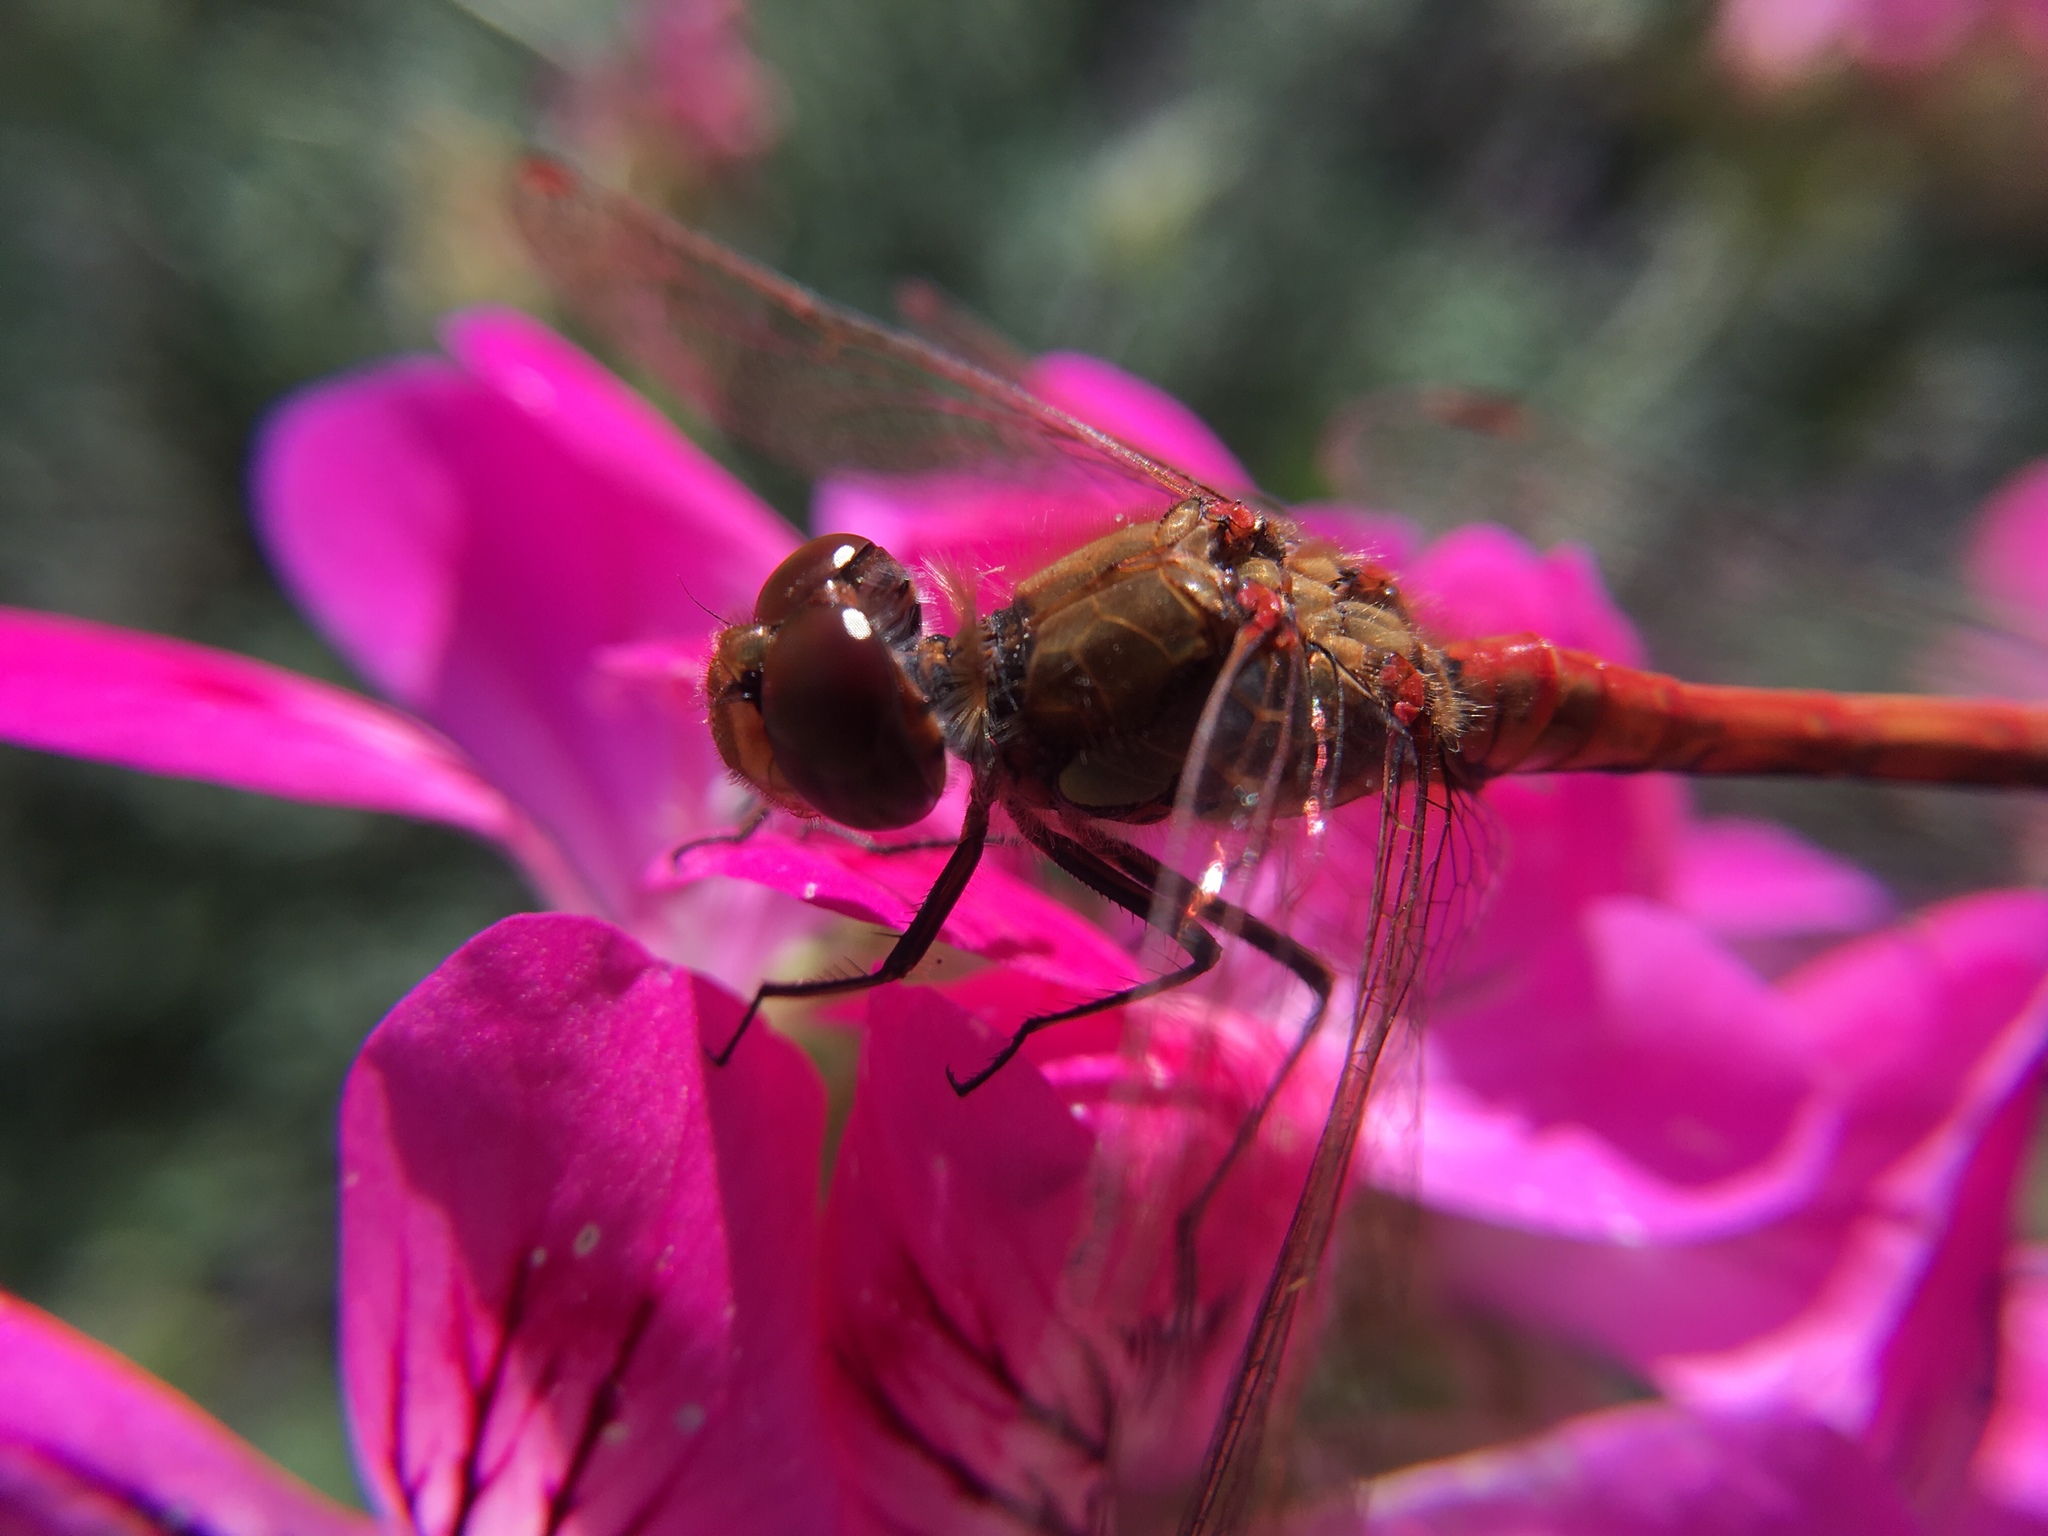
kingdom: Animalia
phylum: Arthropoda
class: Insecta
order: Odonata
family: Libellulidae
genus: Sympetrum
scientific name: Sympetrum striolatum
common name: Common darter
